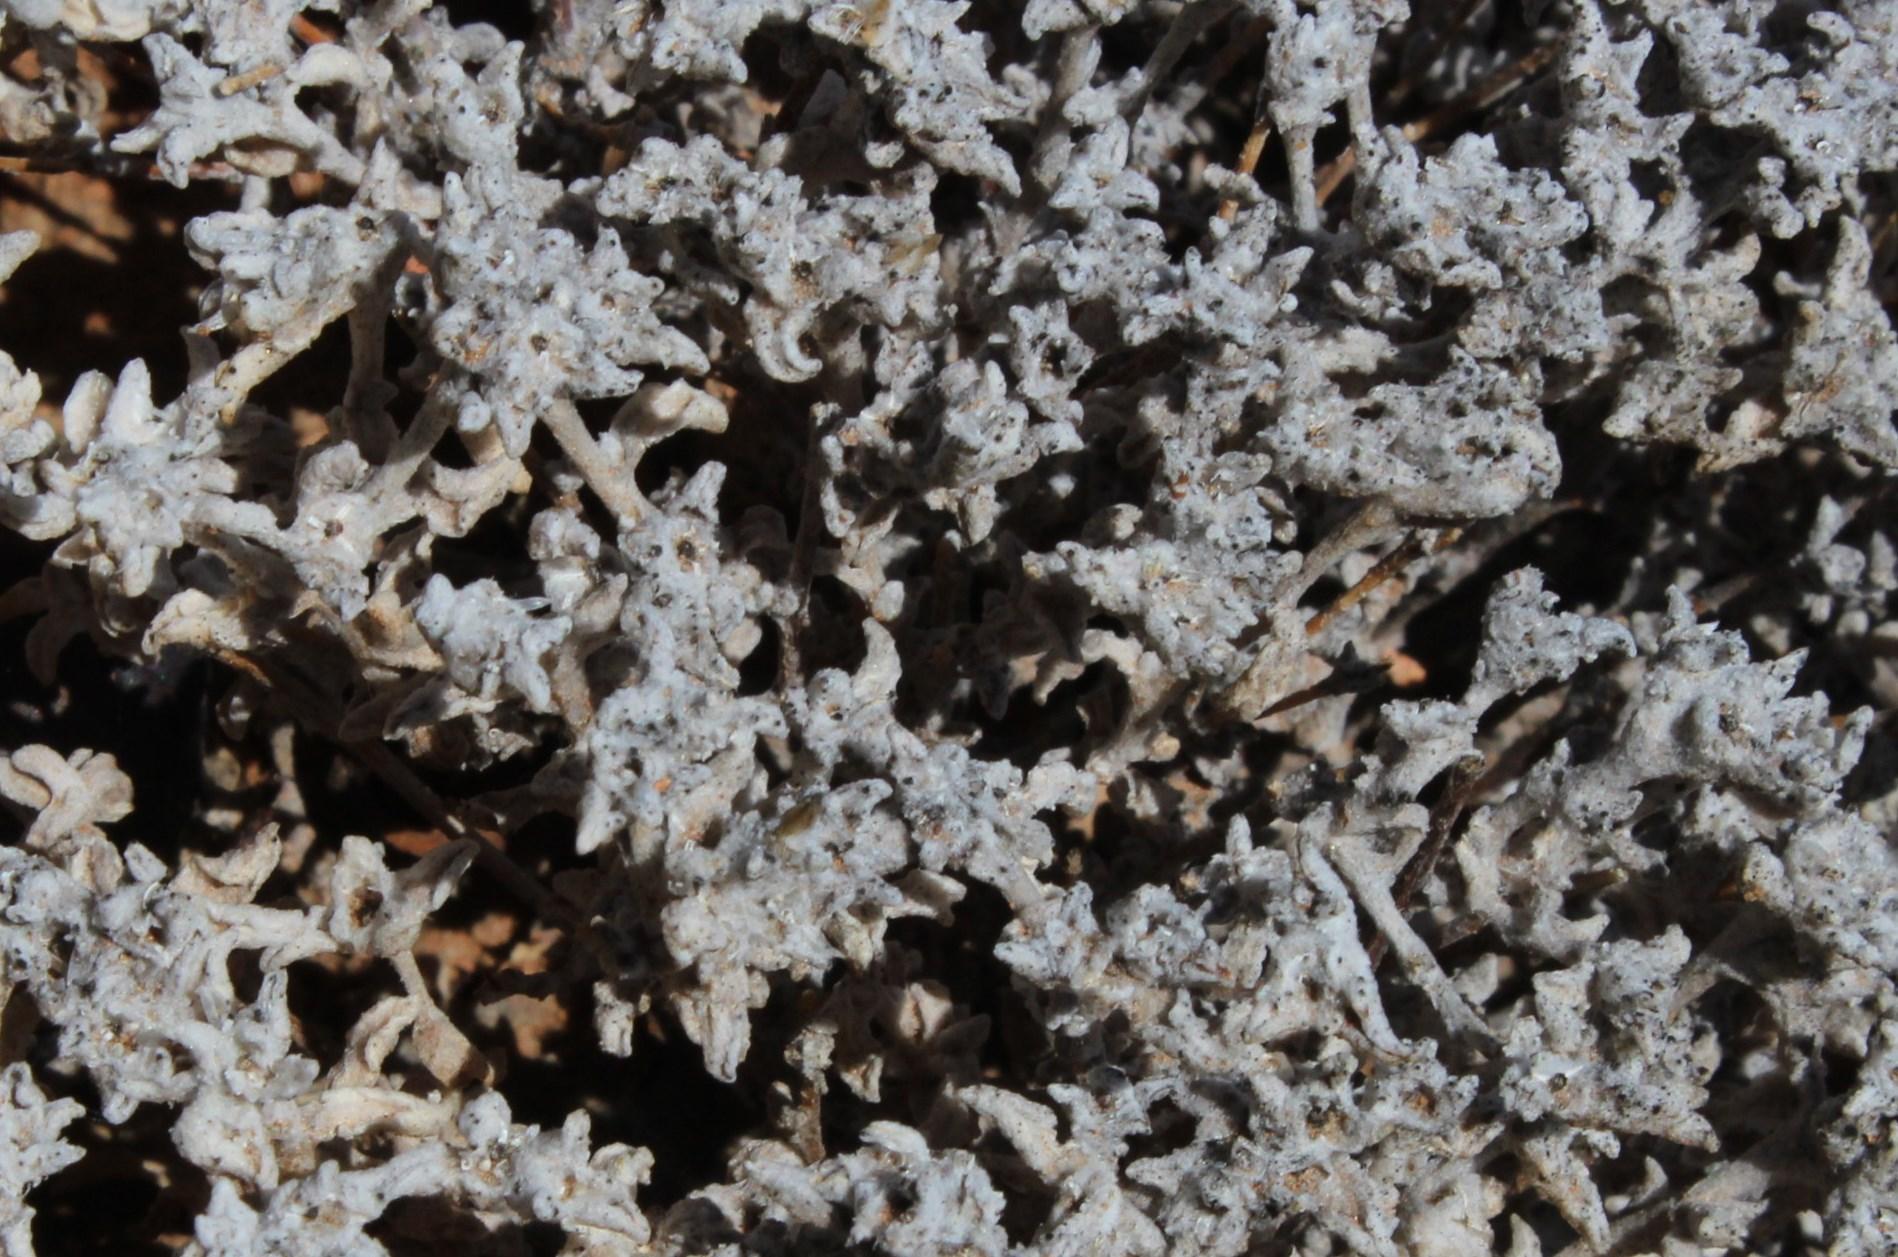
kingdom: Plantae
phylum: Tracheophyta
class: Magnoliopsida
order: Asterales
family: Asteraceae
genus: Helichrysum
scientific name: Helichrysum obtusum
